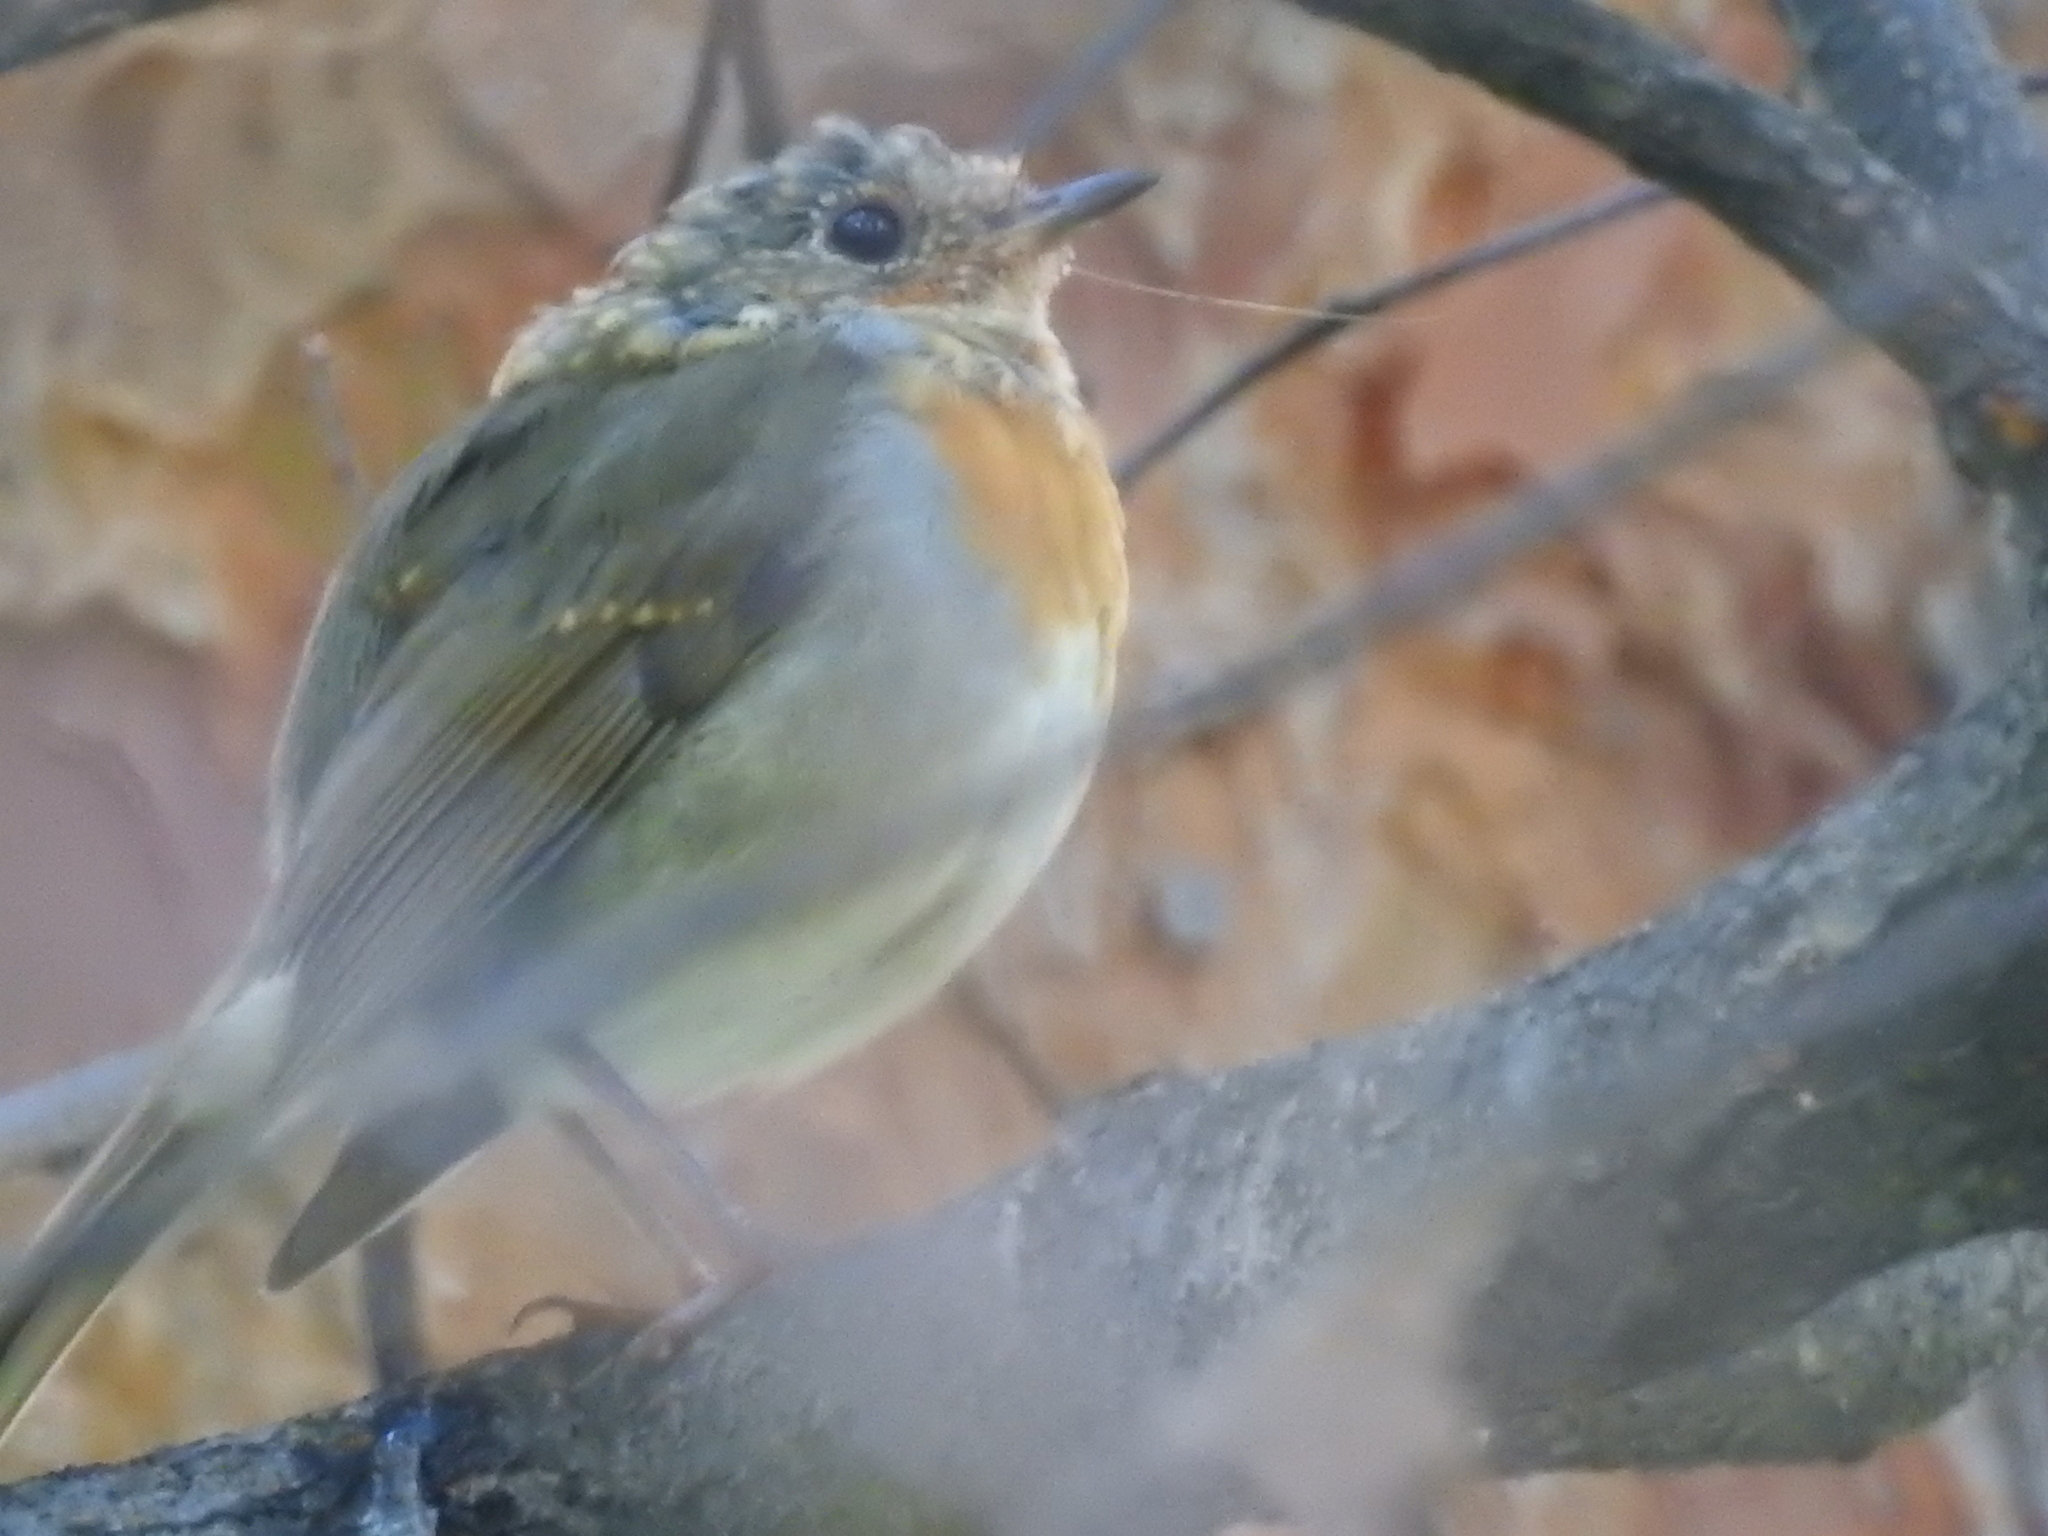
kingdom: Animalia
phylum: Chordata
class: Aves
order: Passeriformes
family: Muscicapidae
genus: Erithacus
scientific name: Erithacus rubecula
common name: European robin
